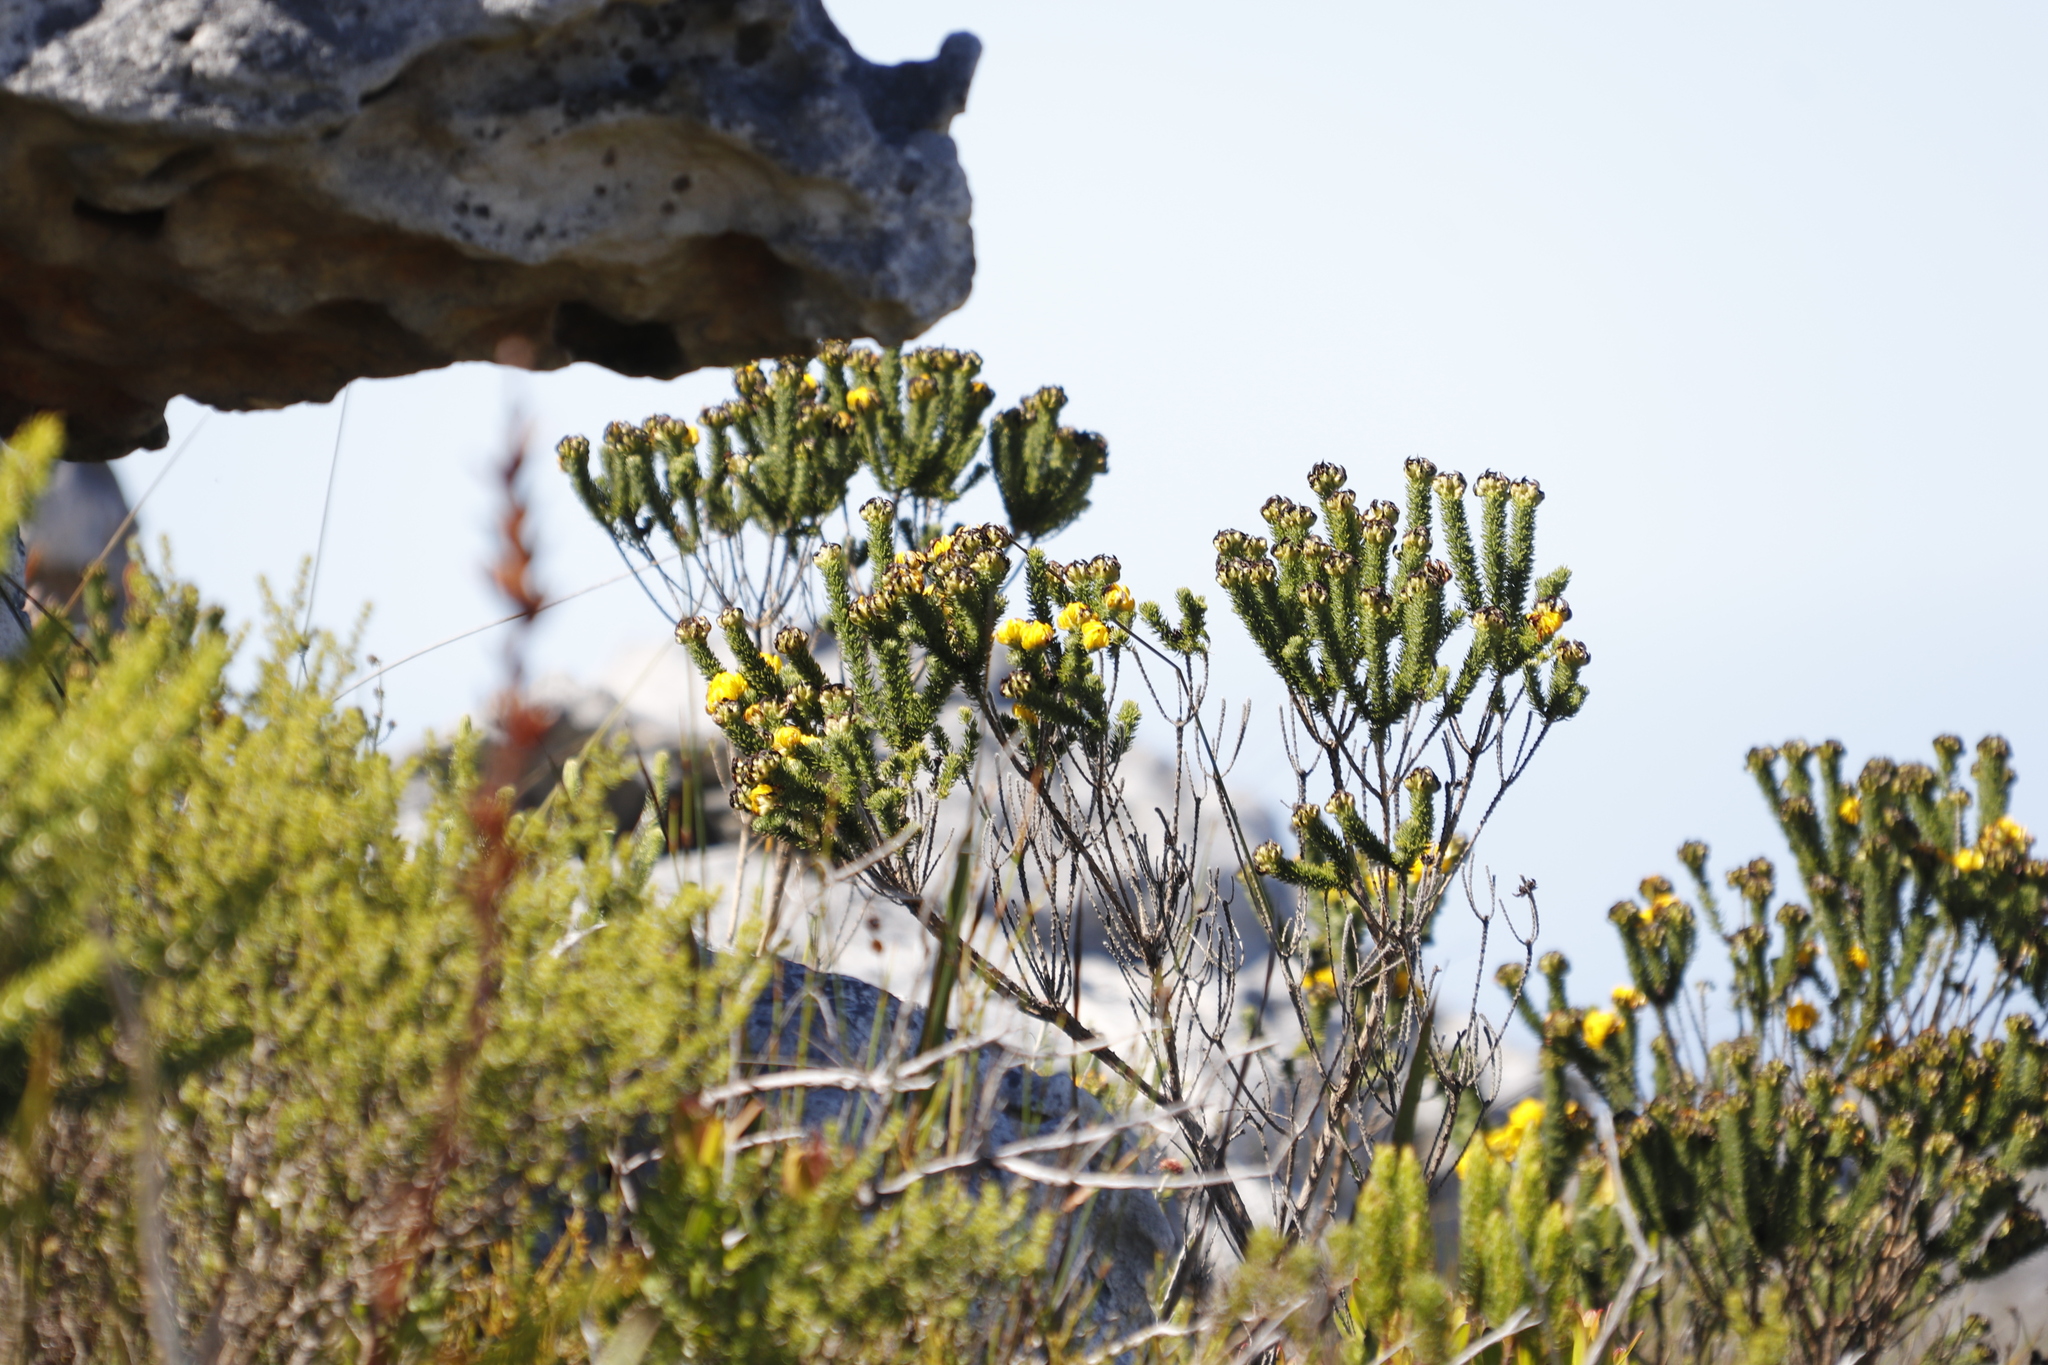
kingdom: Plantae
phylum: Tracheophyta
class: Magnoliopsida
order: Fabales
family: Fabaceae
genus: Aspalathus
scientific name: Aspalathus capitata
